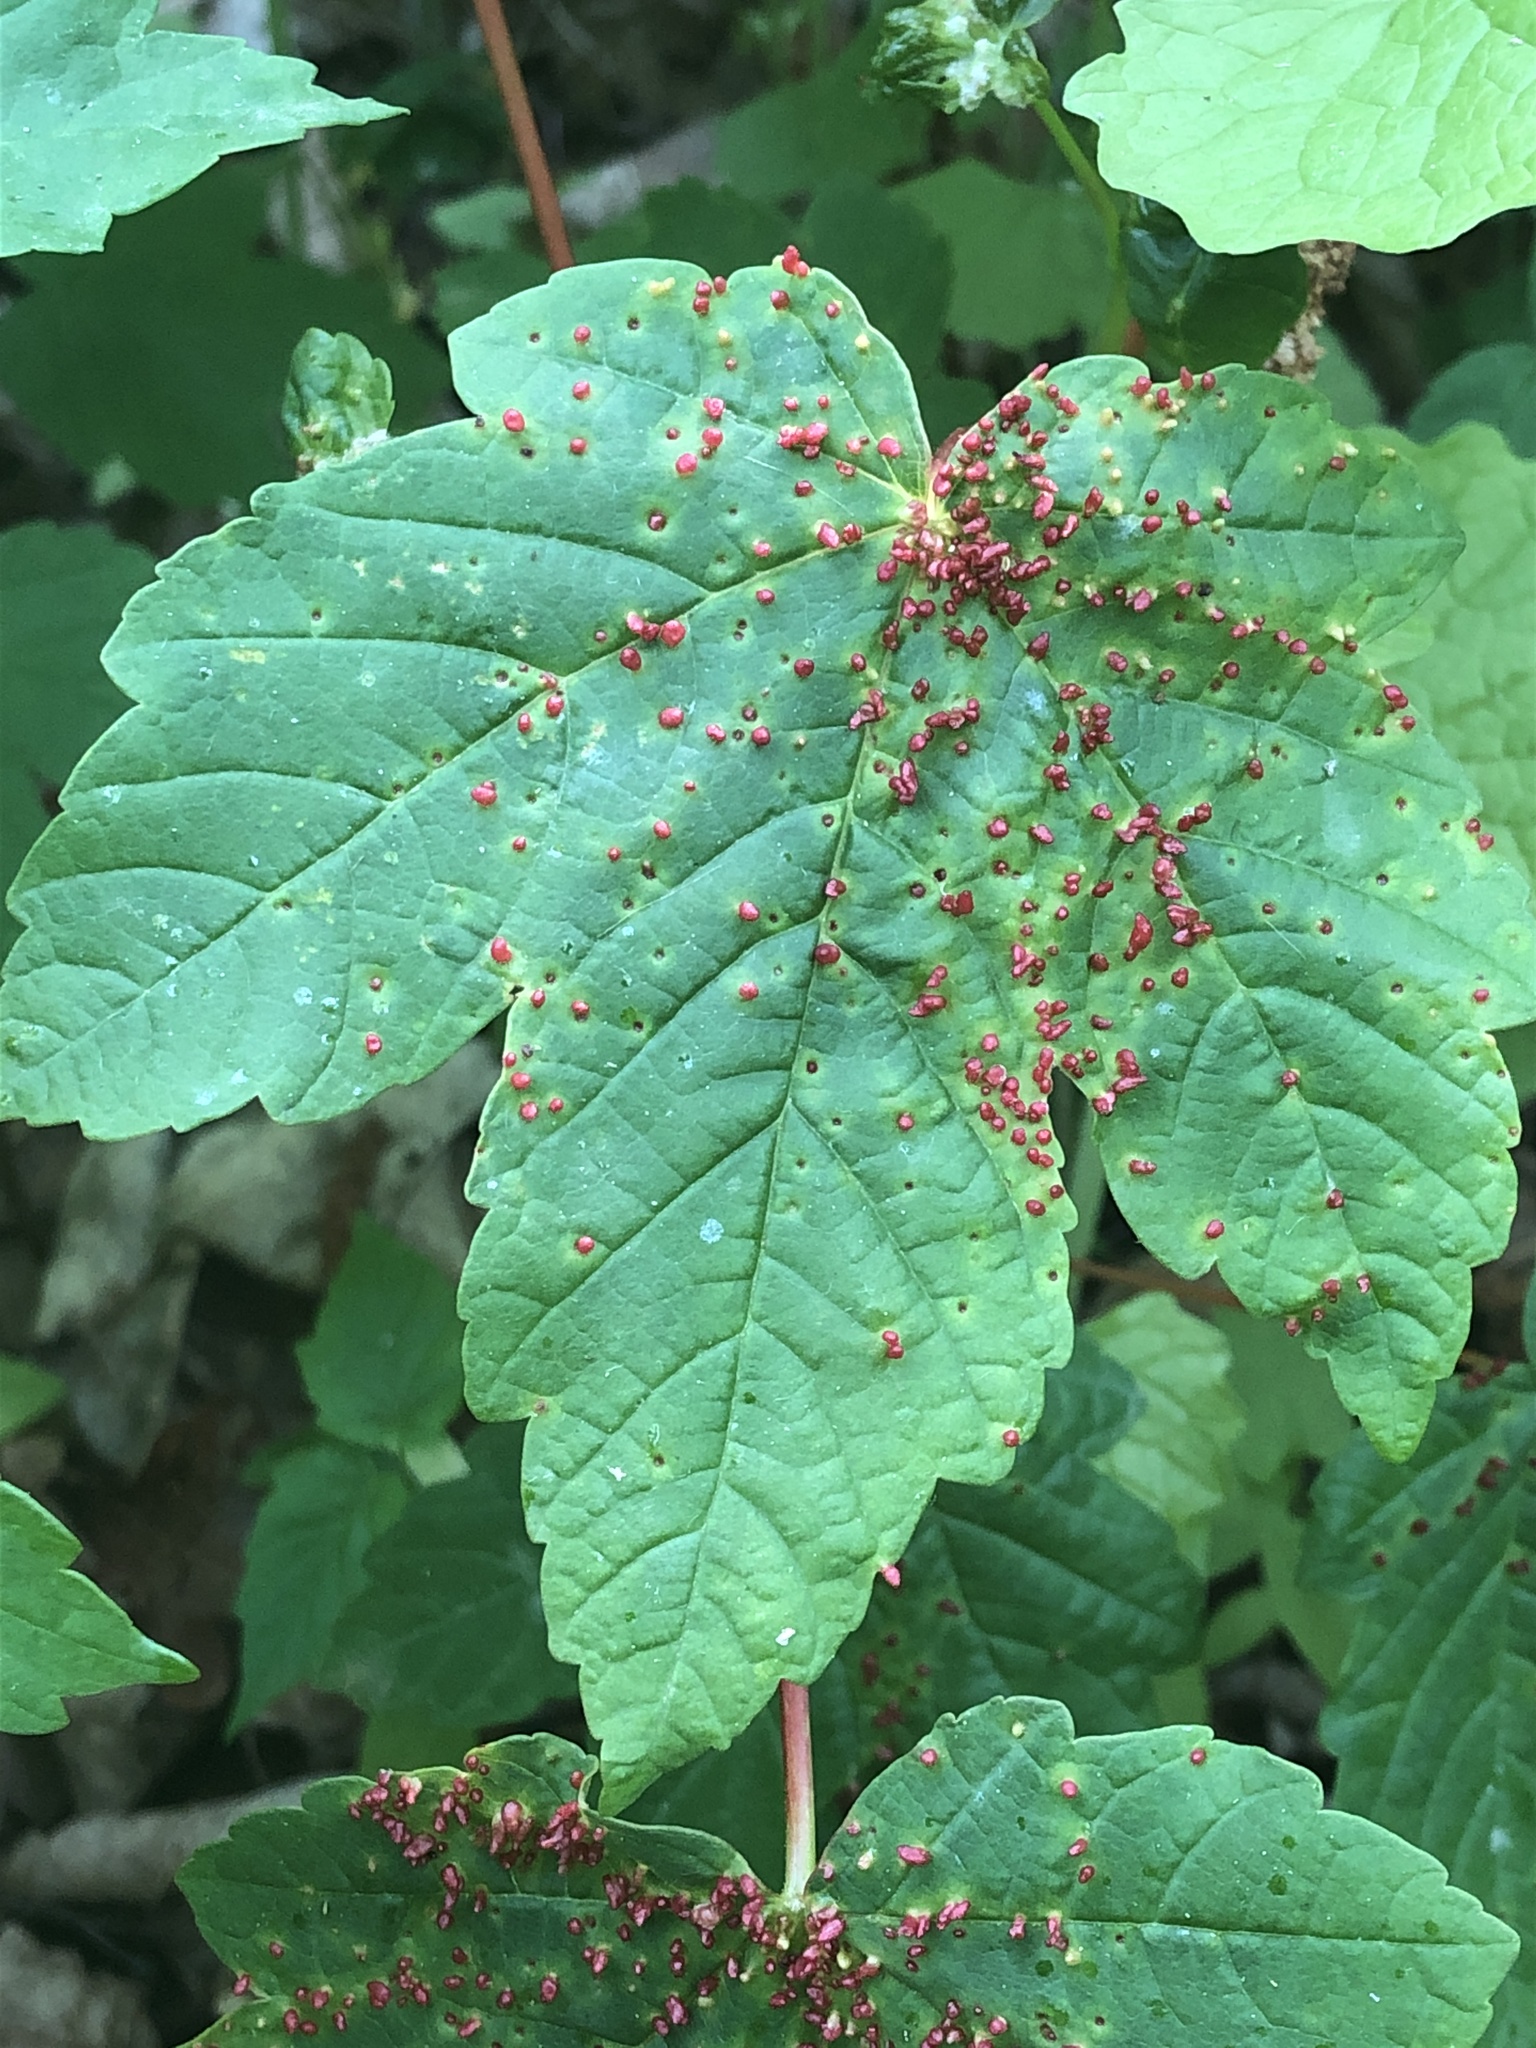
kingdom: Animalia
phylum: Arthropoda
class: Arachnida
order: Trombidiformes
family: Eriophyidae
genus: Aceria
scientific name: Aceria cephaloneus
